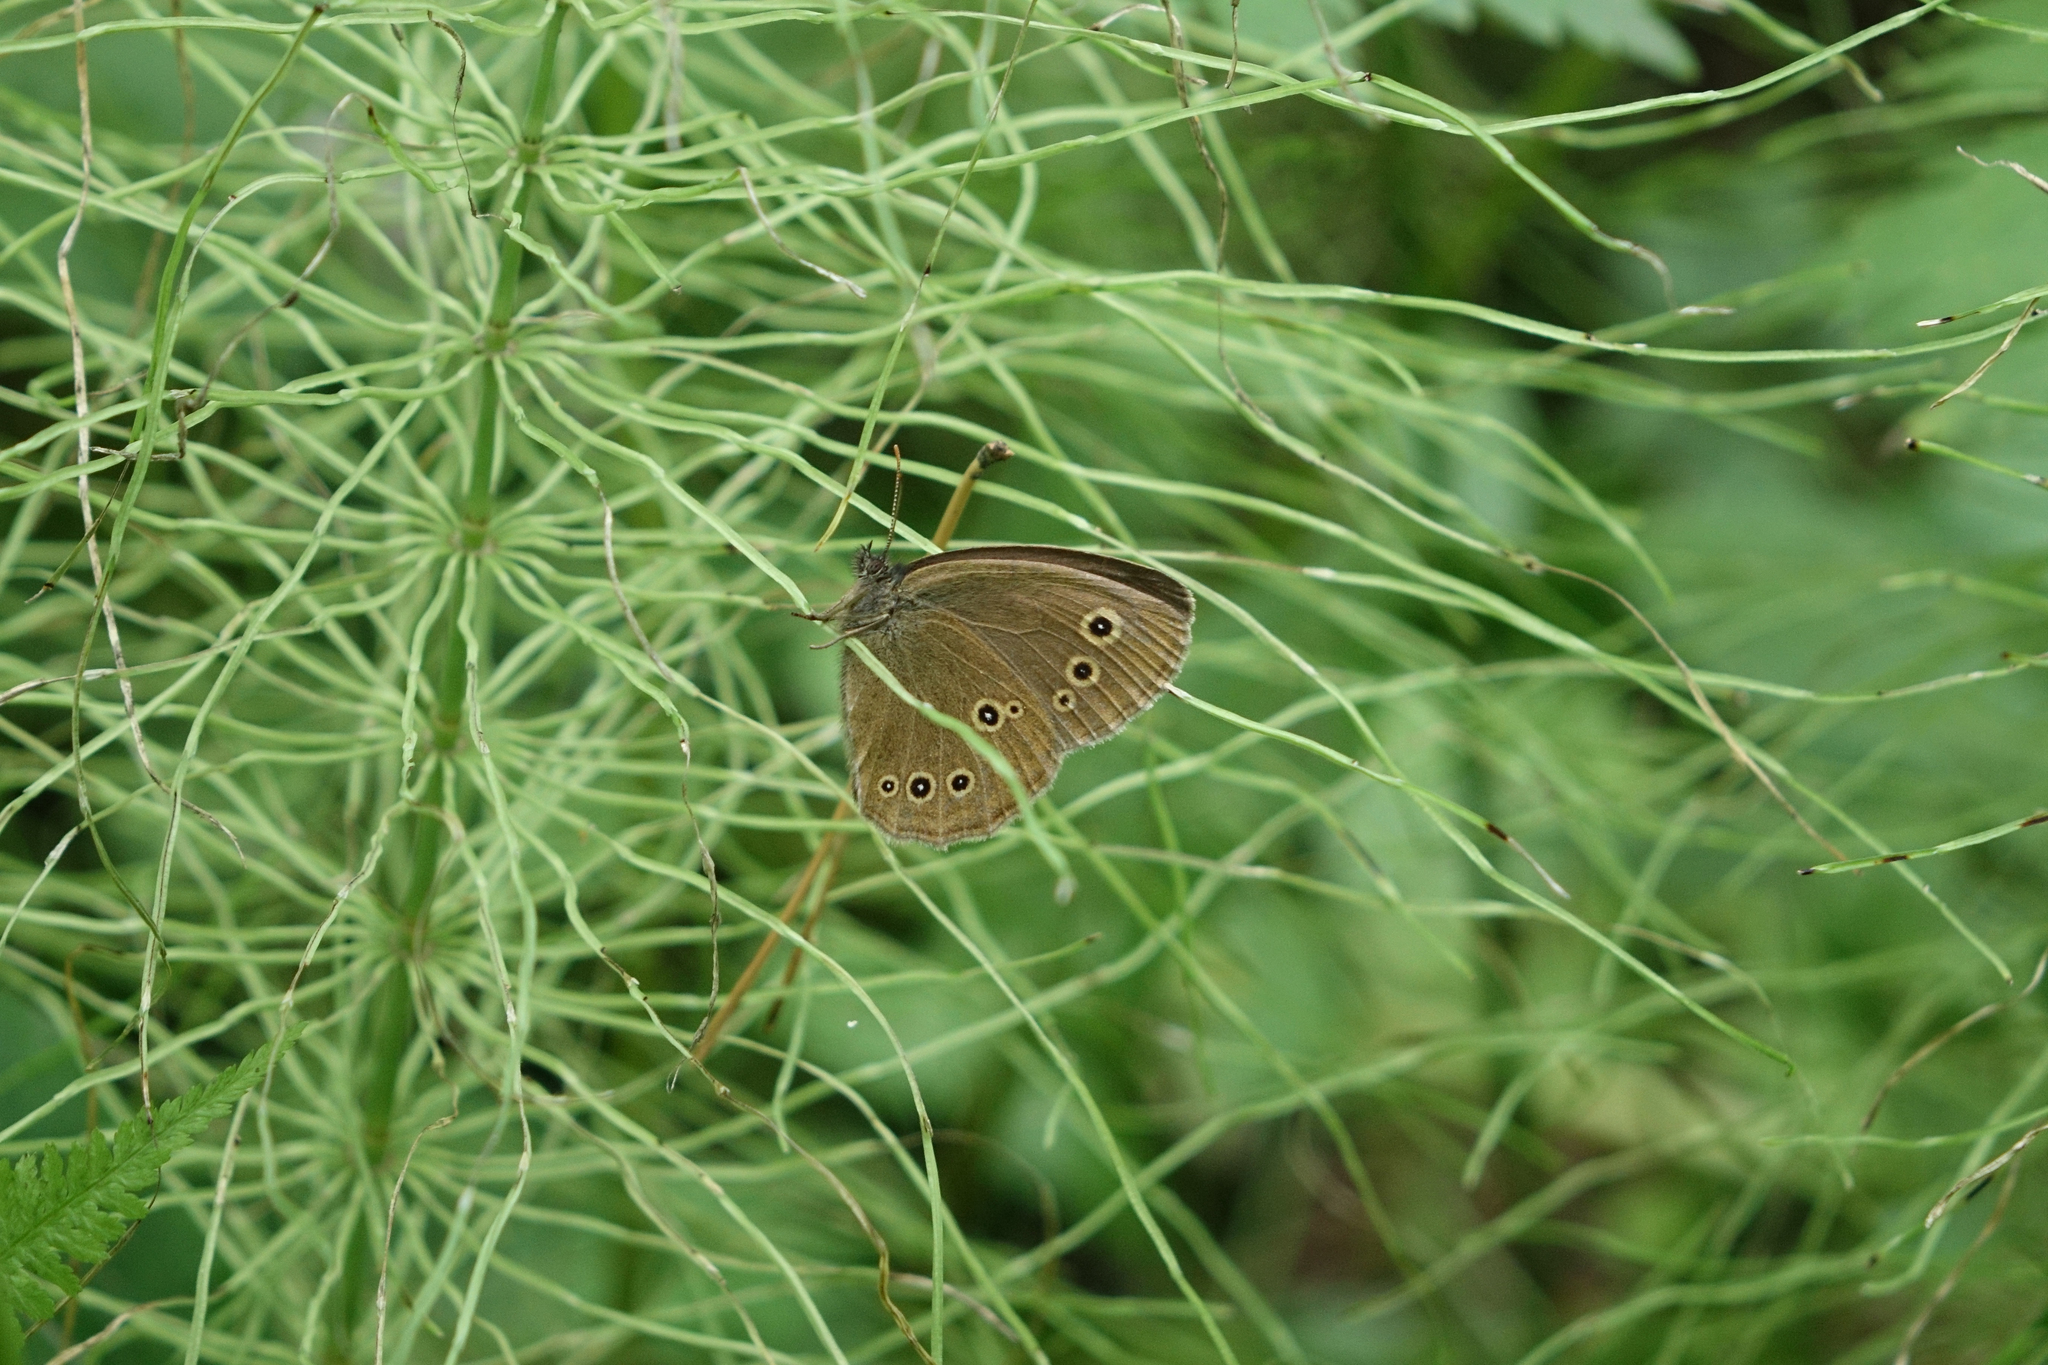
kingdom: Plantae
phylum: Tracheophyta
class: Polypodiopsida
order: Equisetales
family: Equisetaceae
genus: Equisetum
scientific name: Equisetum pratense
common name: Meadow horsetail
